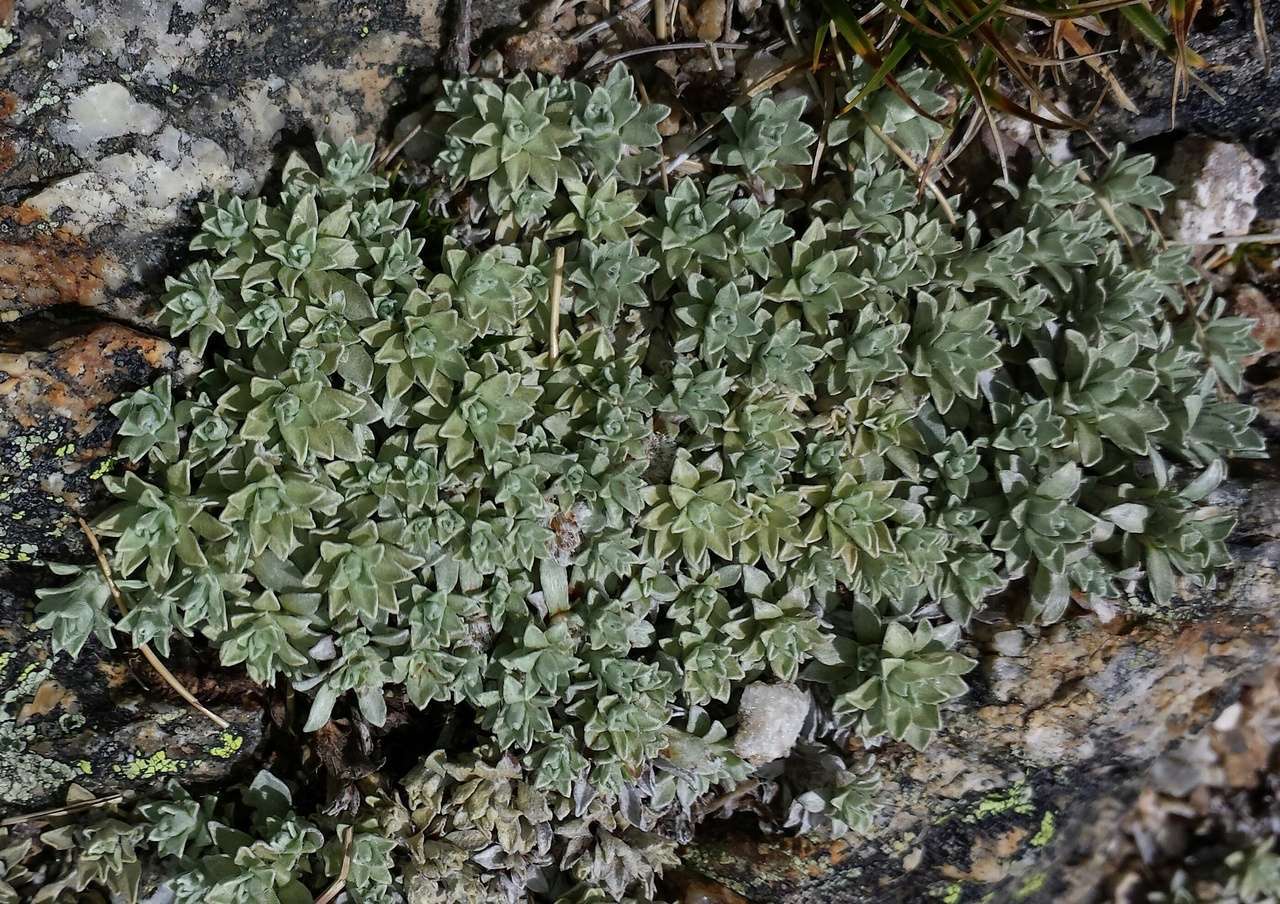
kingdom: Plantae
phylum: Tracheophyta
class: Magnoliopsida
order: Asterales
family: Asteraceae
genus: Ewartia
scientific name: Ewartia nubigena
